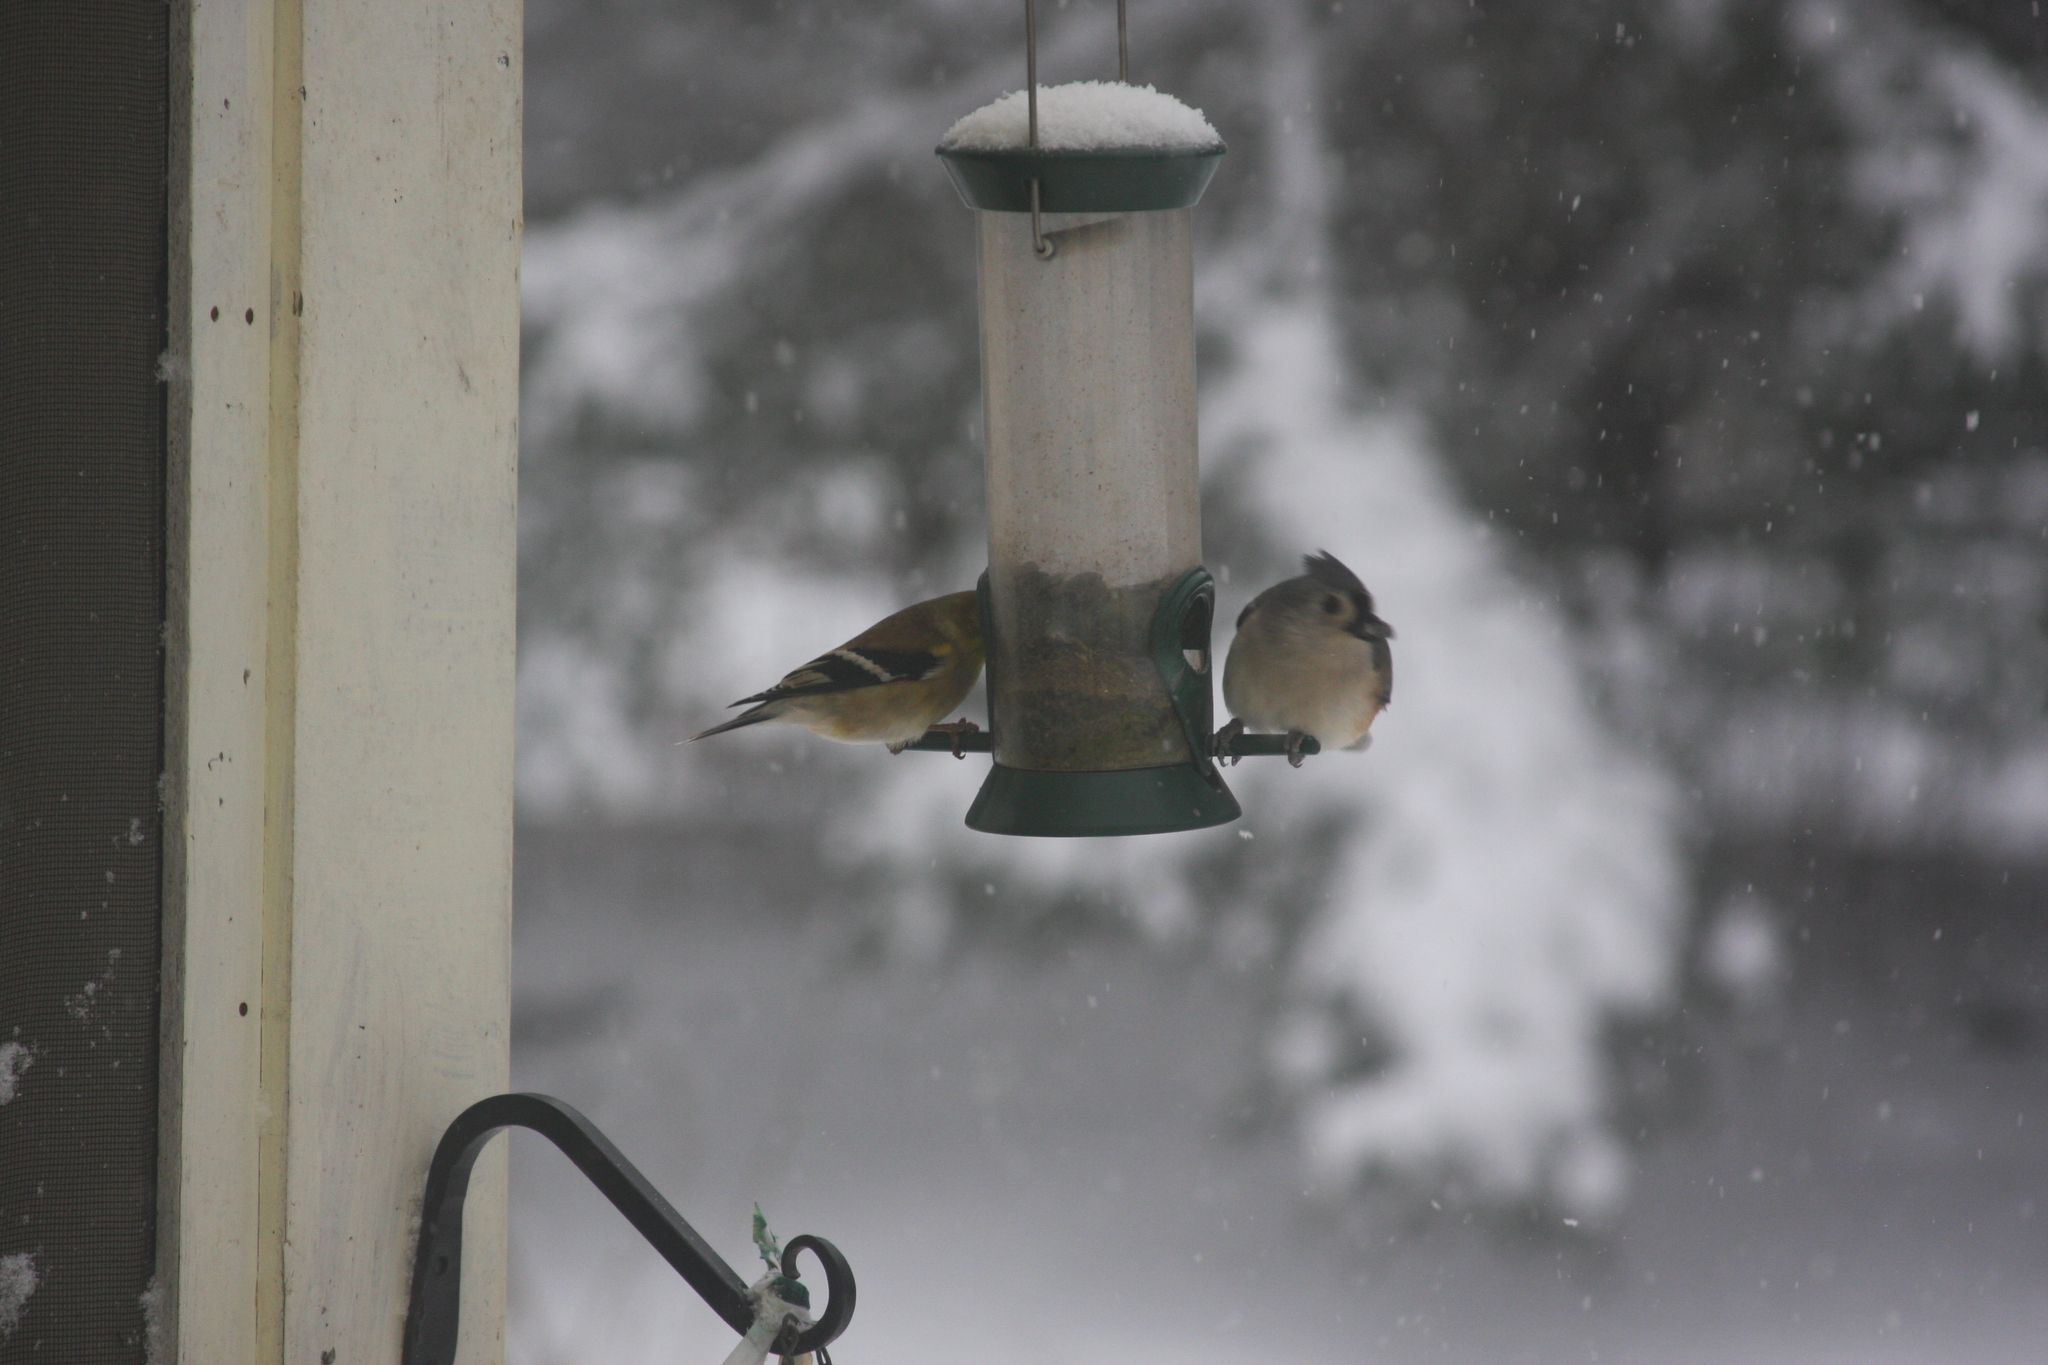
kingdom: Animalia
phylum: Chordata
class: Aves
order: Passeriformes
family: Paridae
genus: Baeolophus
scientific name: Baeolophus bicolor
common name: Tufted titmouse
